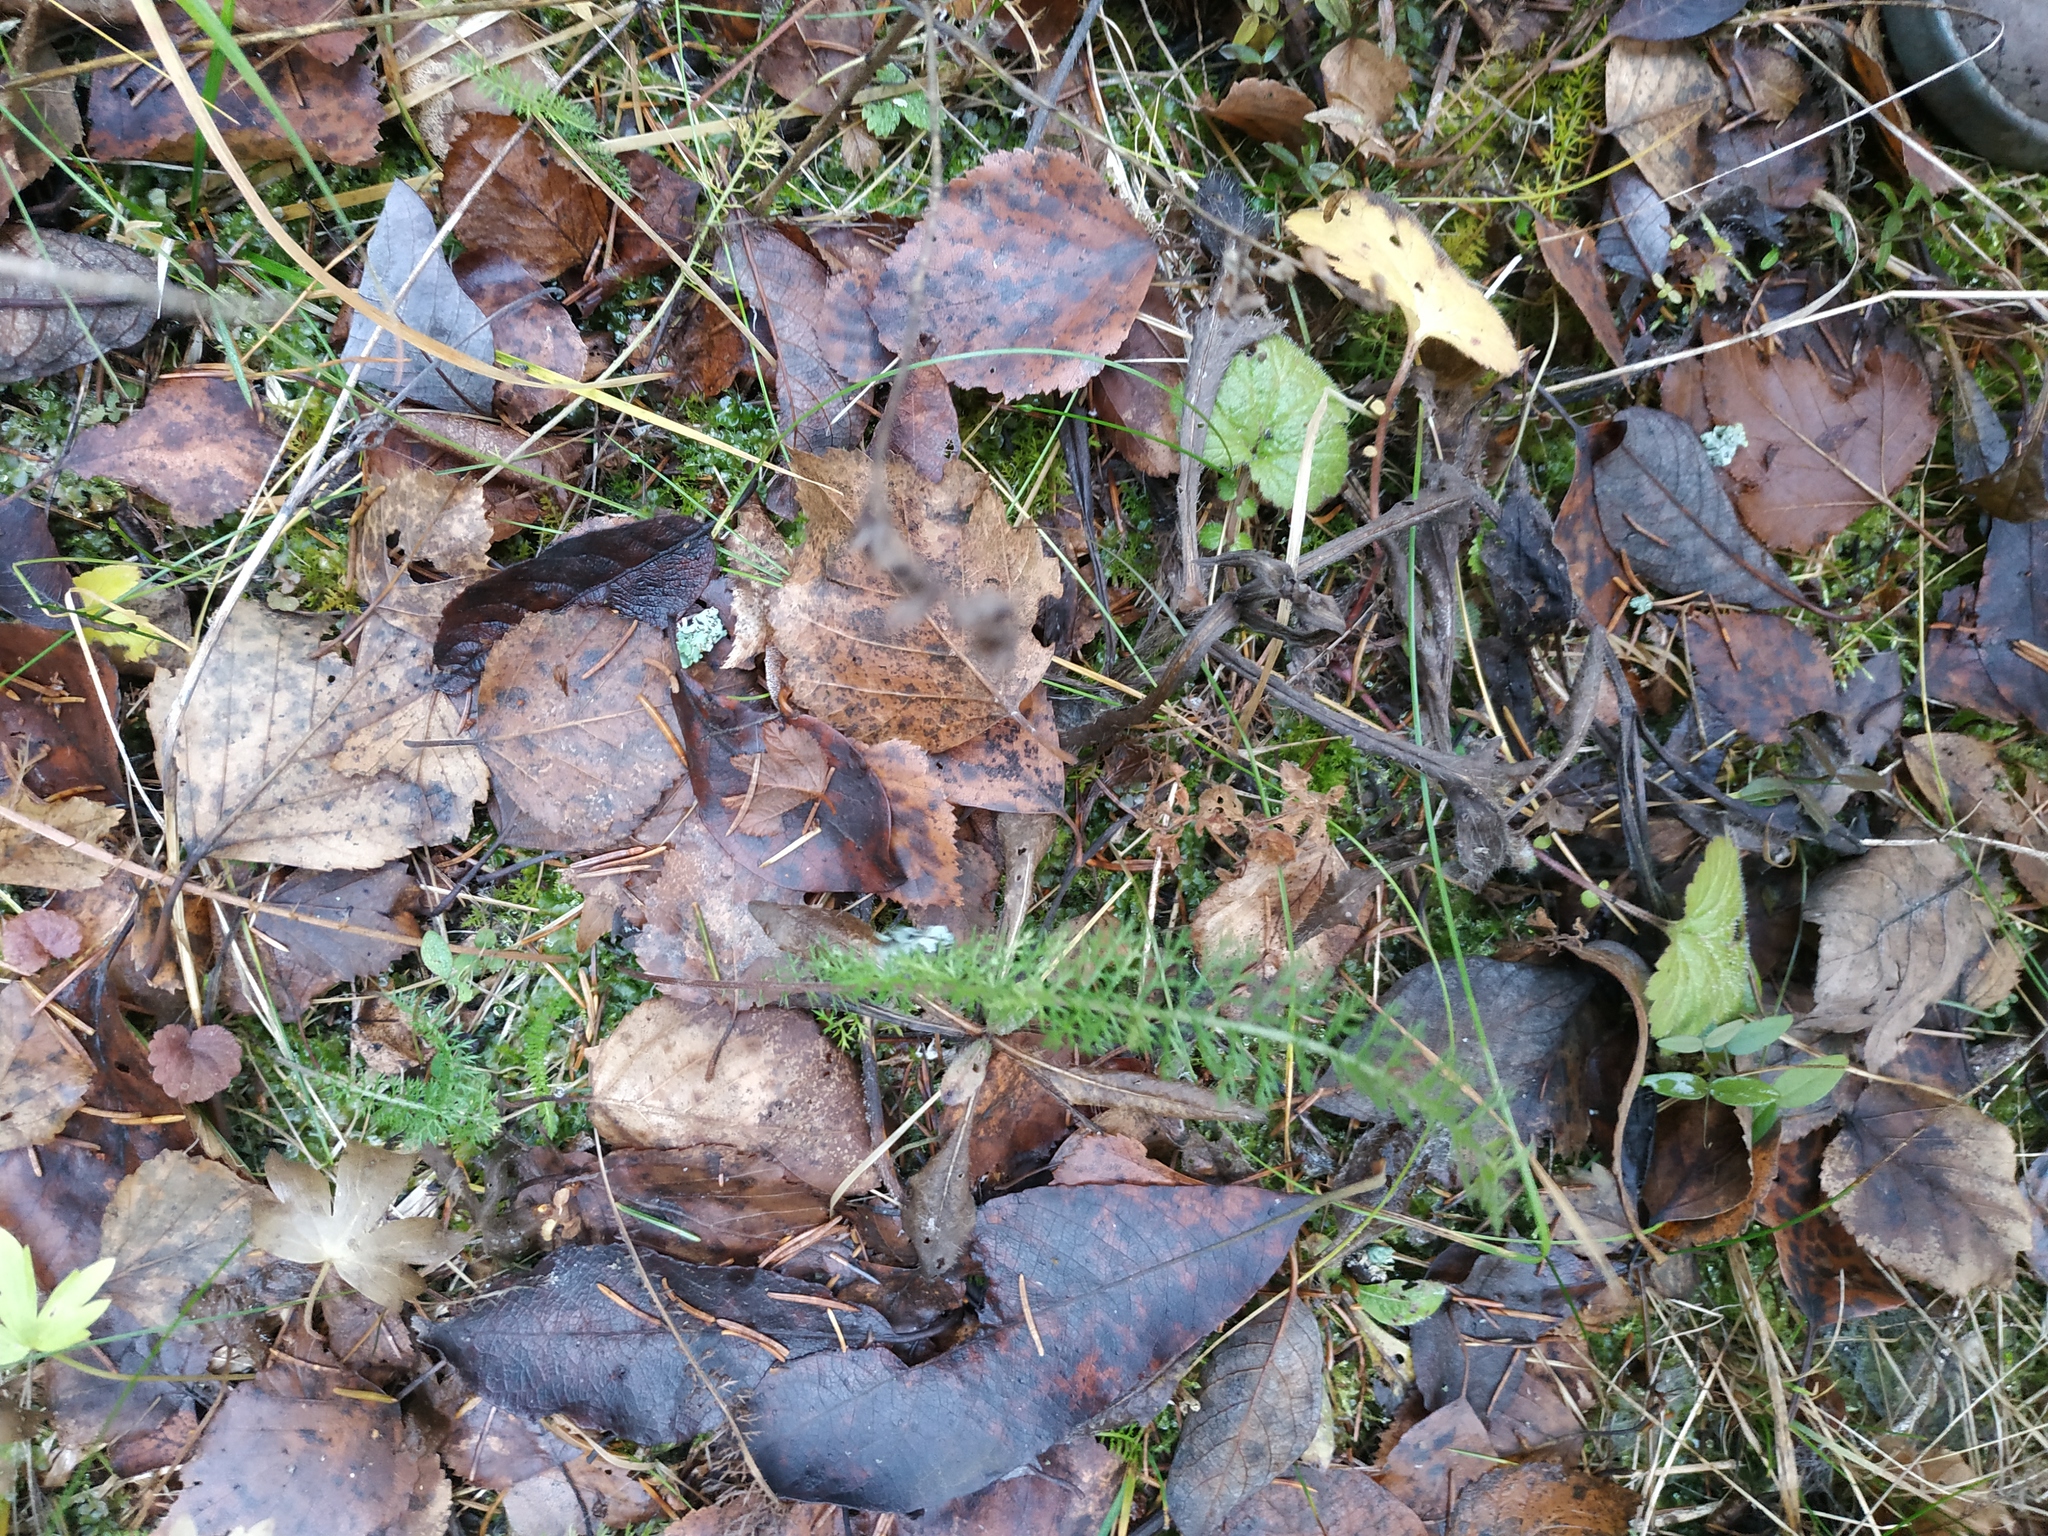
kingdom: Plantae
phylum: Tracheophyta
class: Magnoliopsida
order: Asterales
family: Asteraceae
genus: Achillea
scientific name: Achillea millefolium
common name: Yarrow
